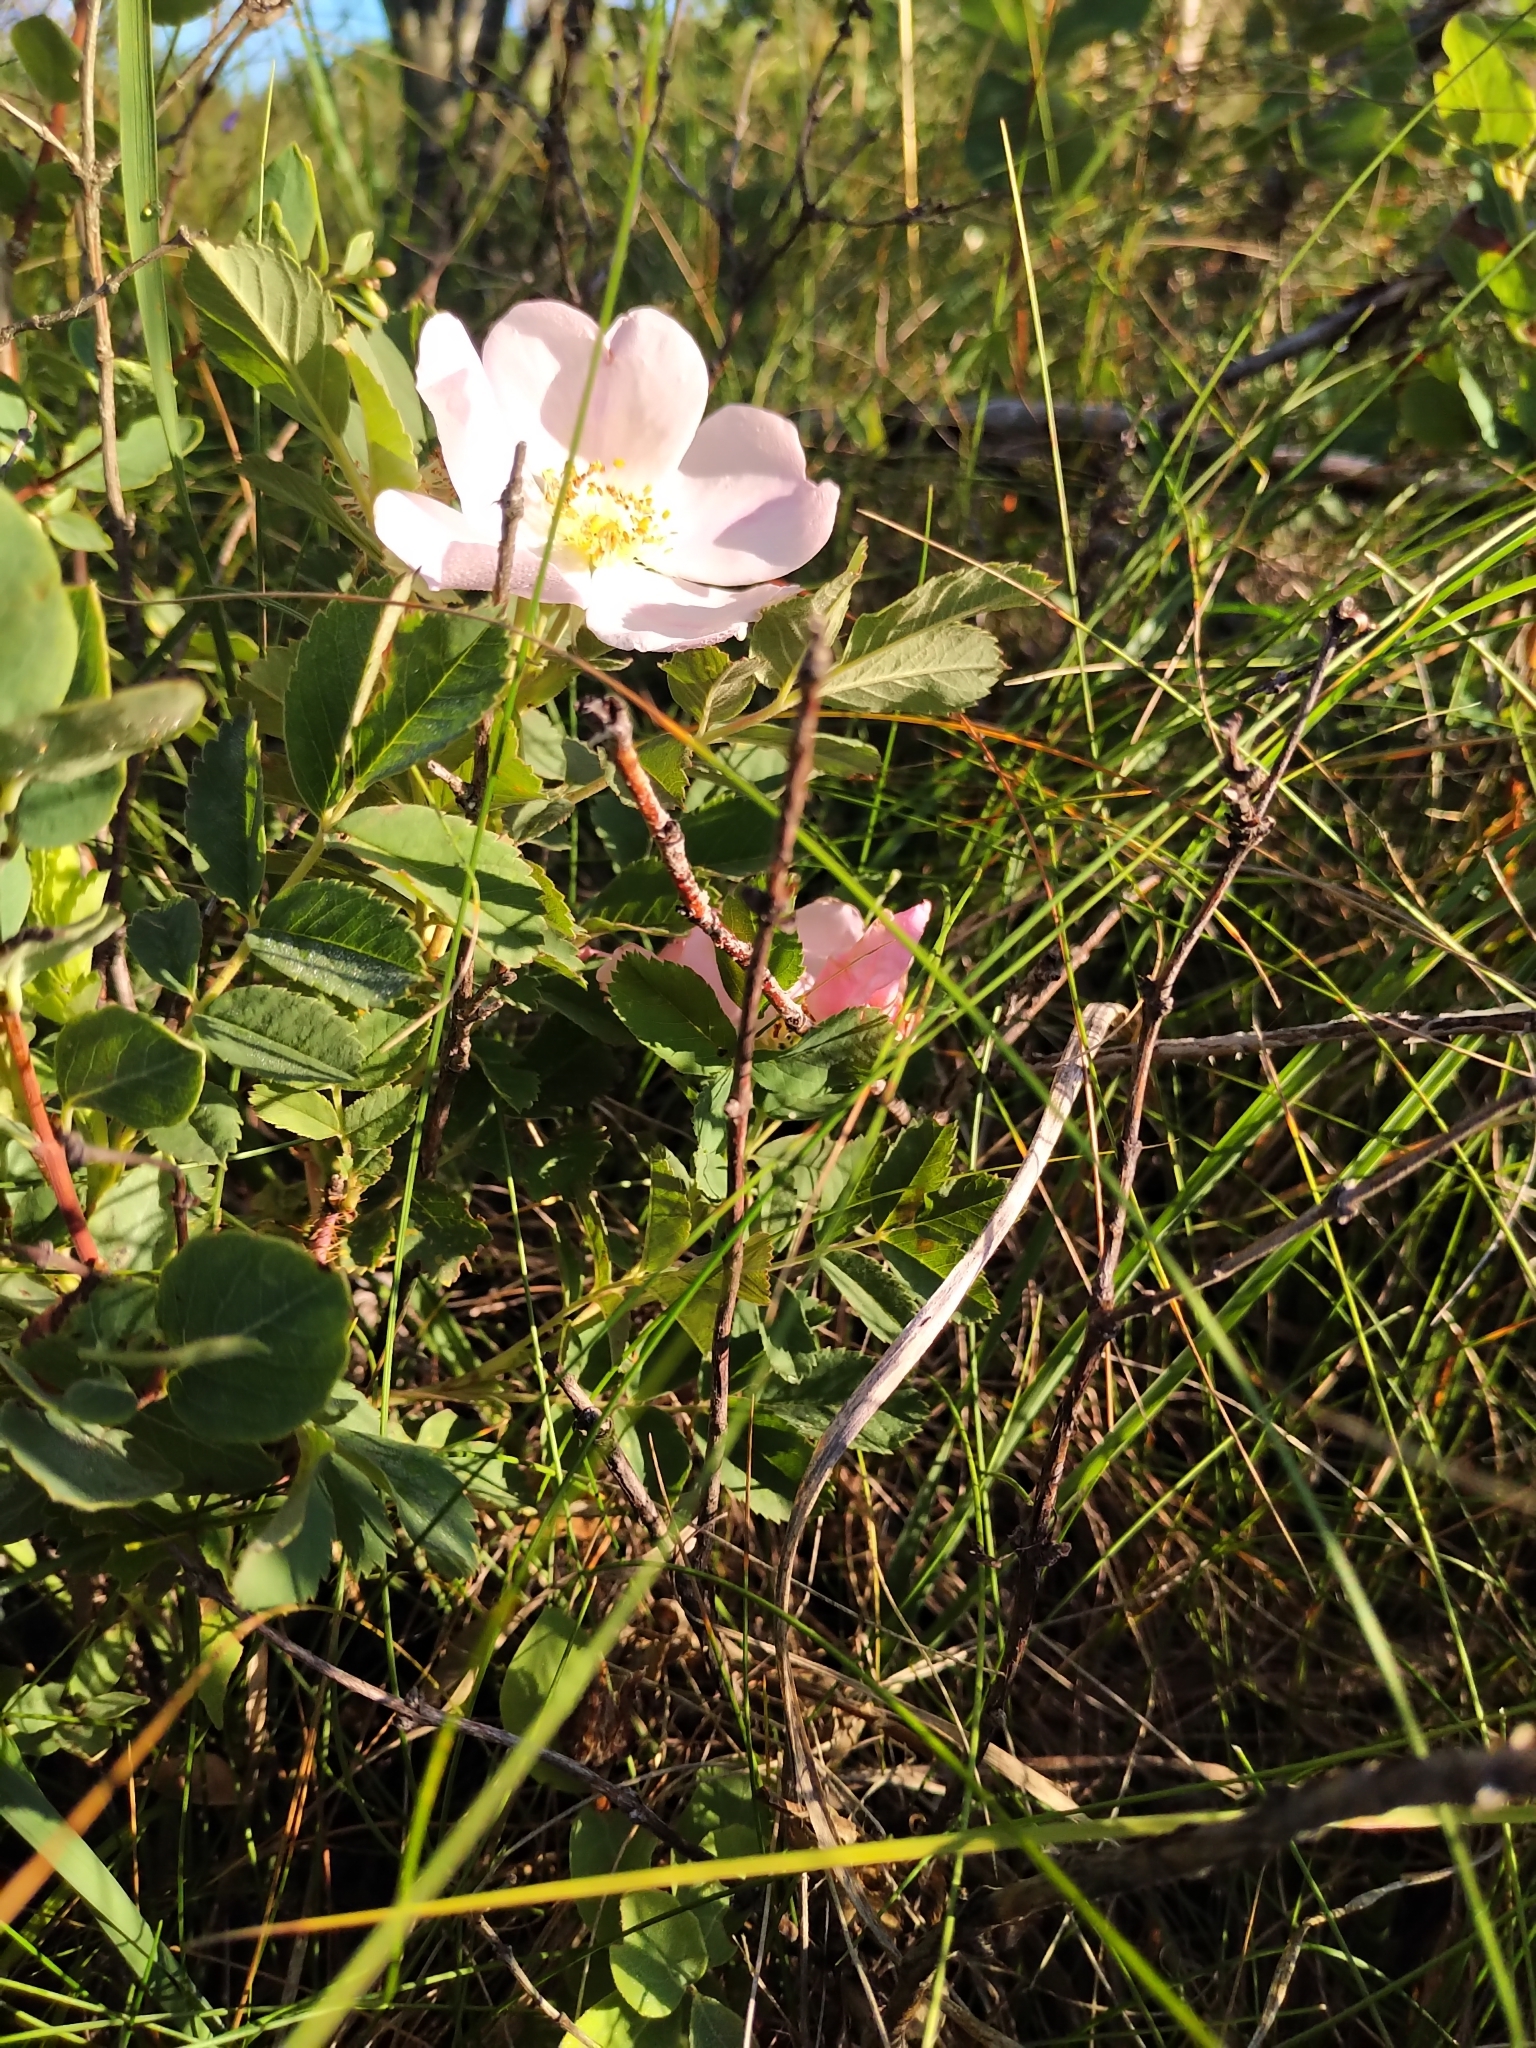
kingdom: Plantae
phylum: Tracheophyta
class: Magnoliopsida
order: Rosales
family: Rosaceae
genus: Rosa
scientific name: Rosa arkansana
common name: Prairie rose
